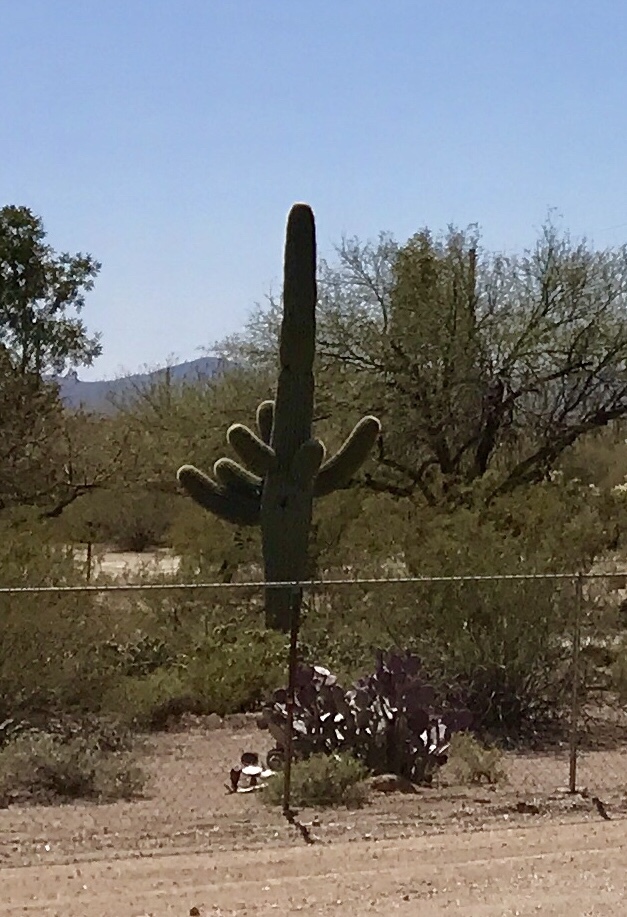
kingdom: Plantae
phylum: Tracheophyta
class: Magnoliopsida
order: Caryophyllales
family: Cactaceae
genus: Carnegiea
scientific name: Carnegiea gigantea
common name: Saguaro
